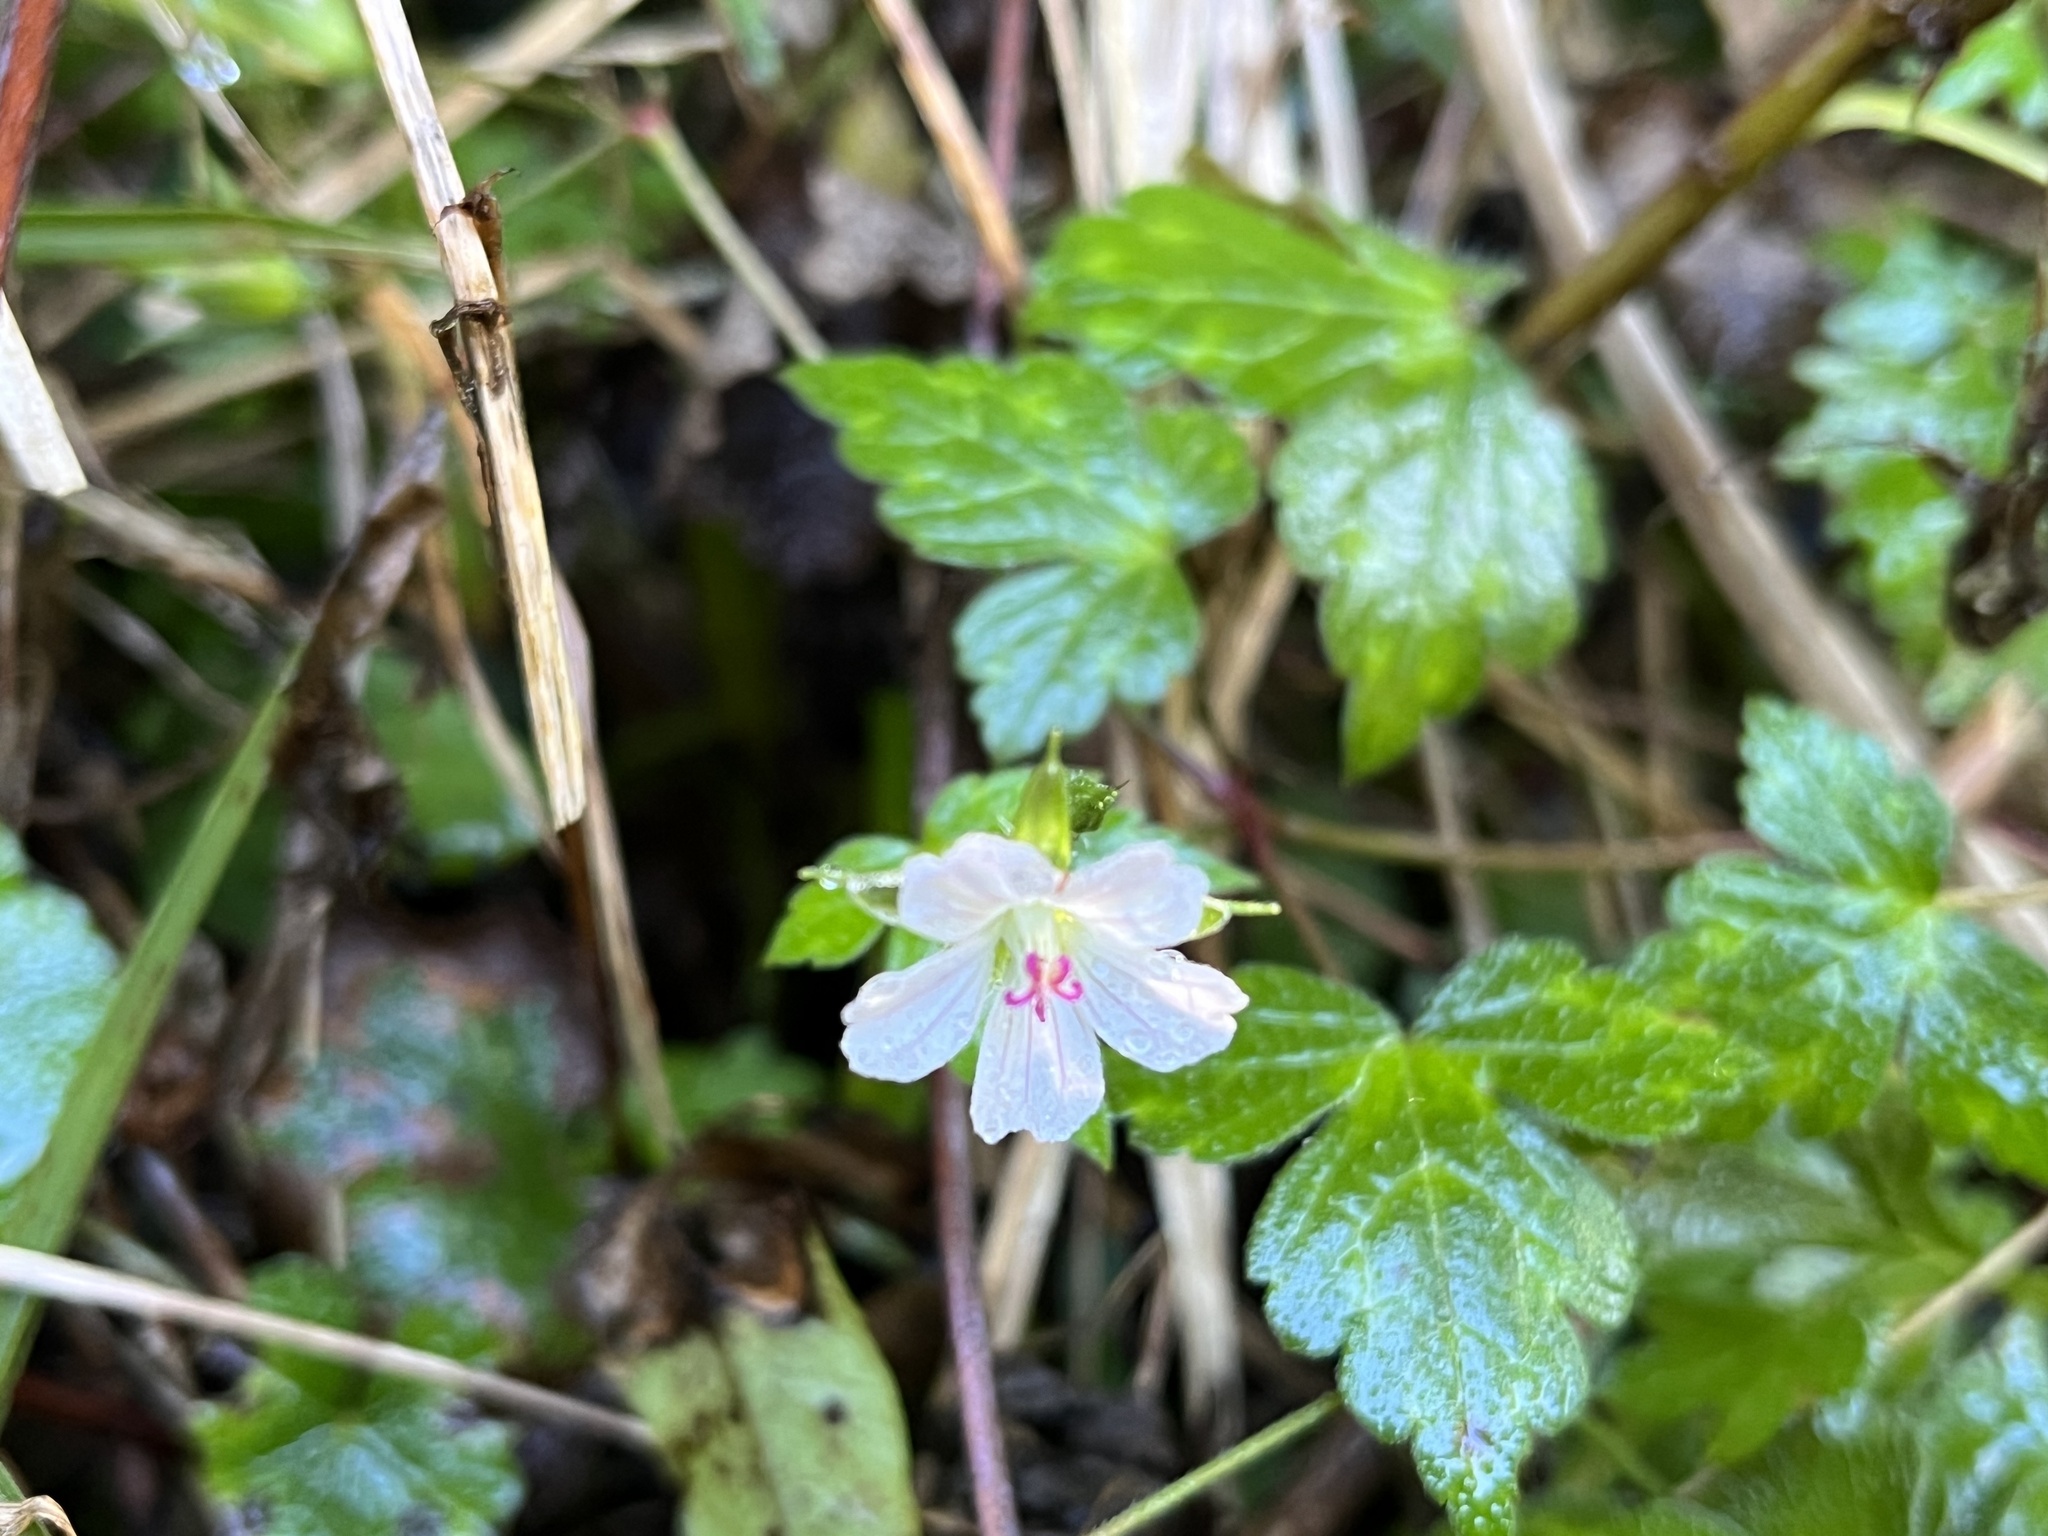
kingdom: Plantae
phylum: Tracheophyta
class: Magnoliopsida
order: Geraniales
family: Geraniaceae
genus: Geranium
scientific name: Geranium wilfordii
